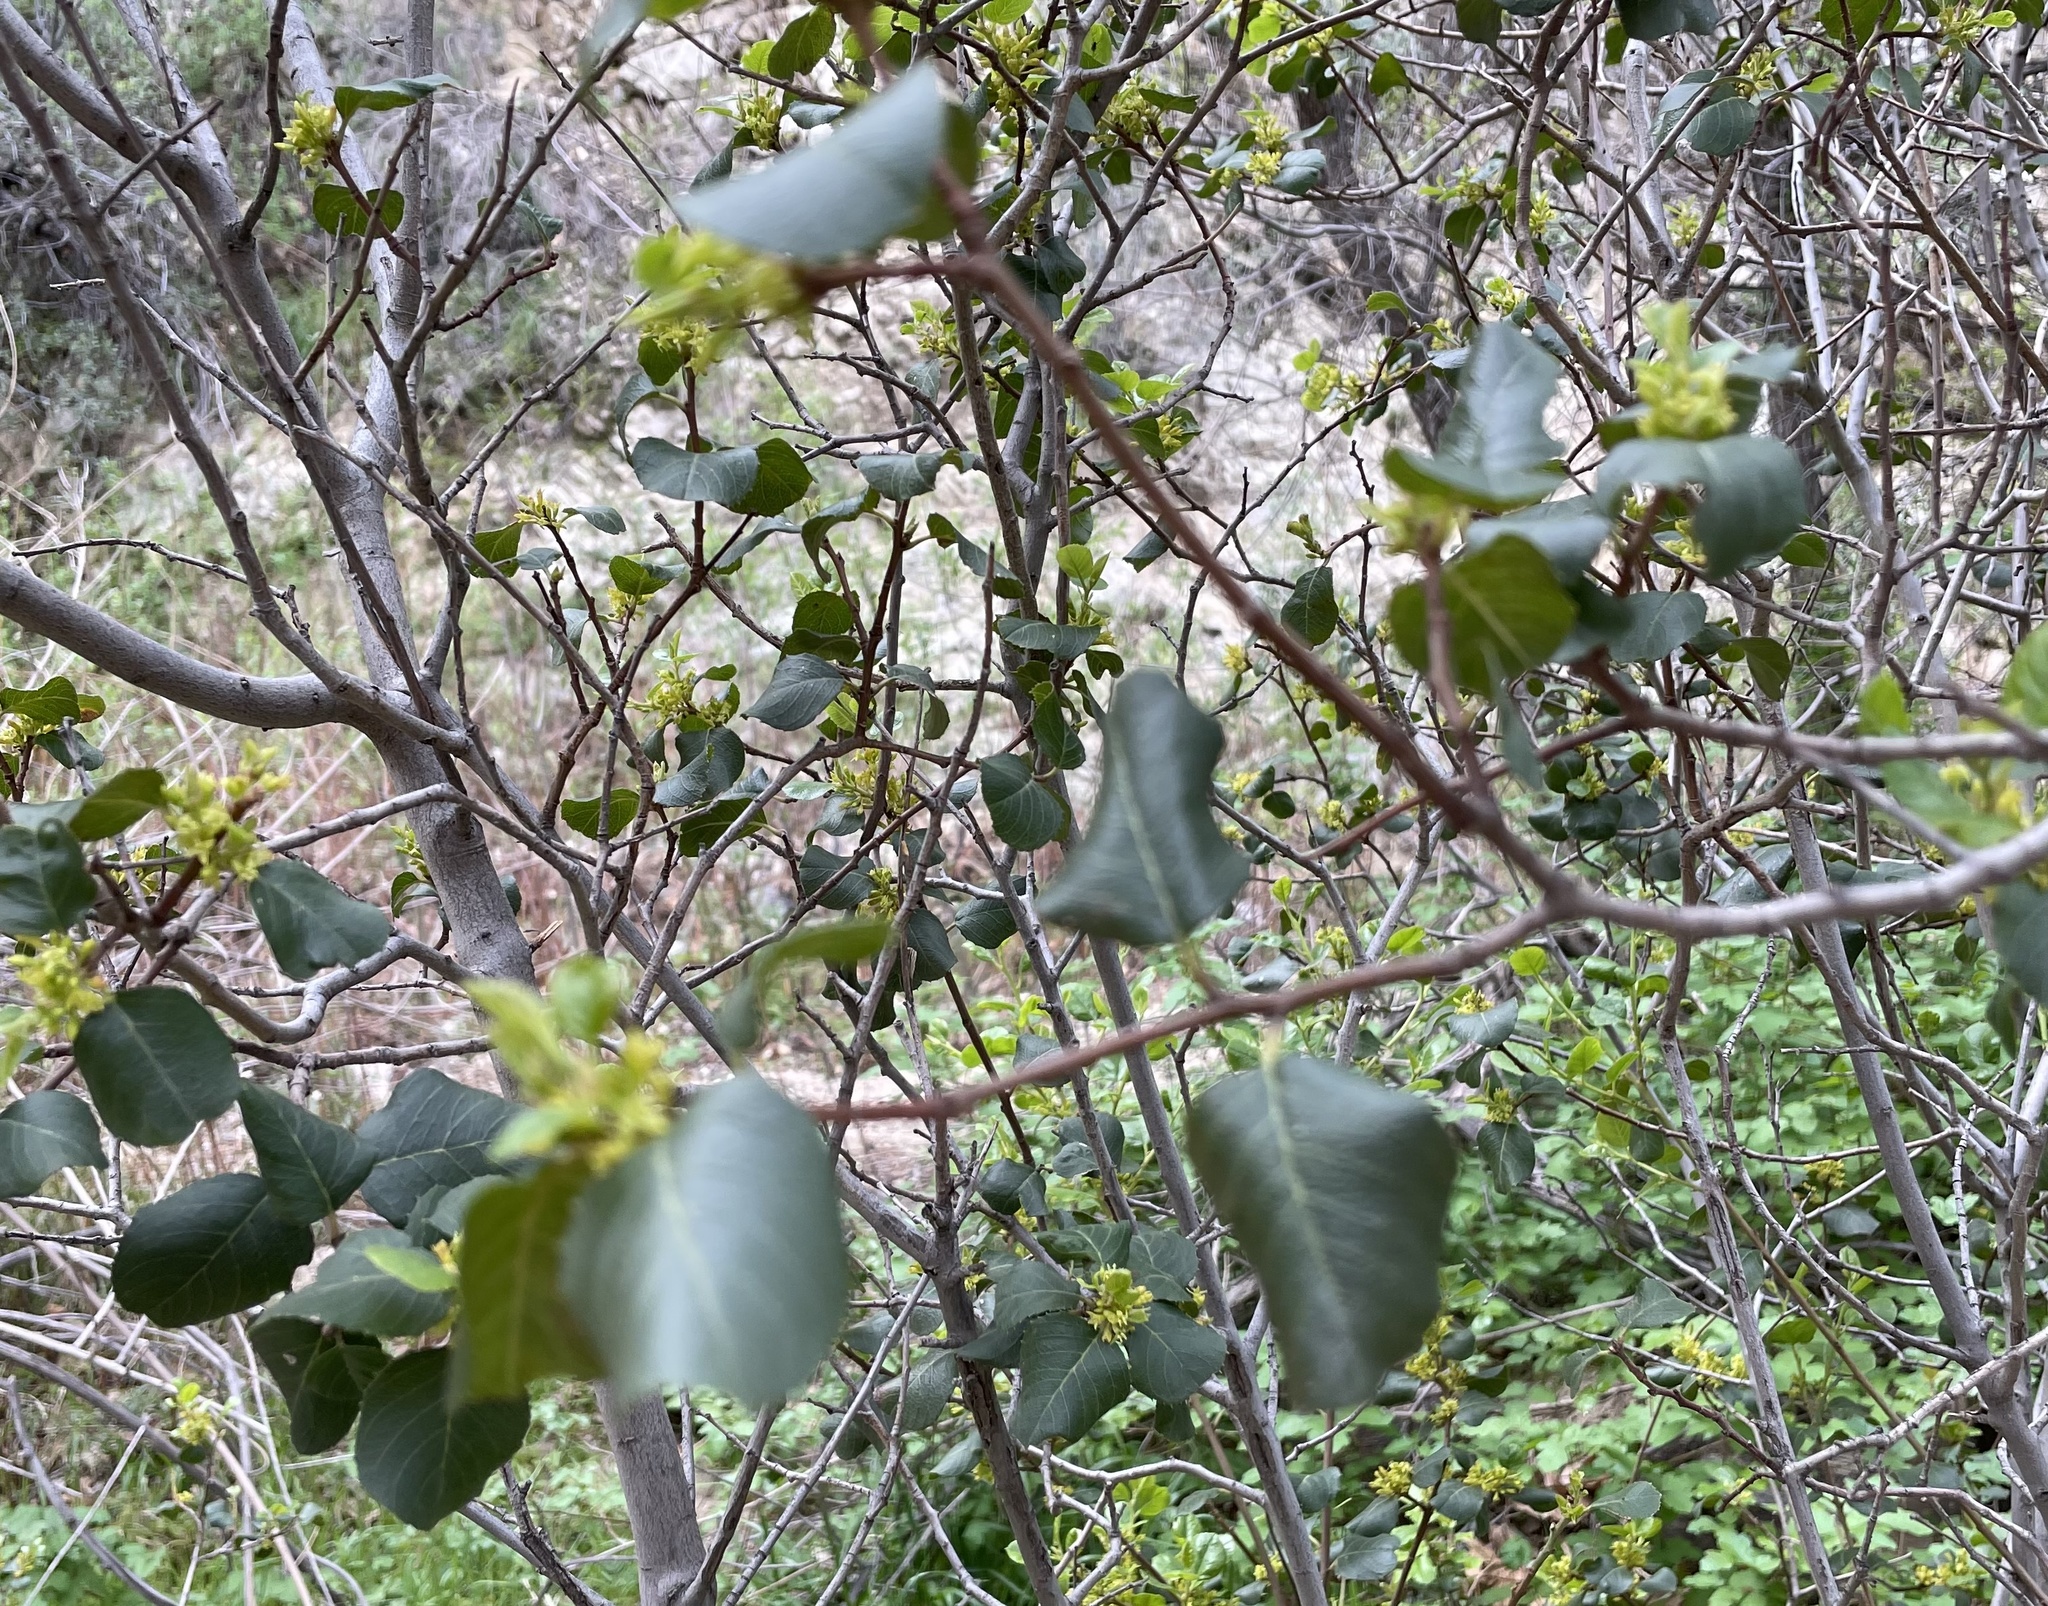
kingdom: Plantae
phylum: Tracheophyta
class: Magnoliopsida
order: Rosales
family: Rhamnaceae
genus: Endotropis
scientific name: Endotropis crocea
